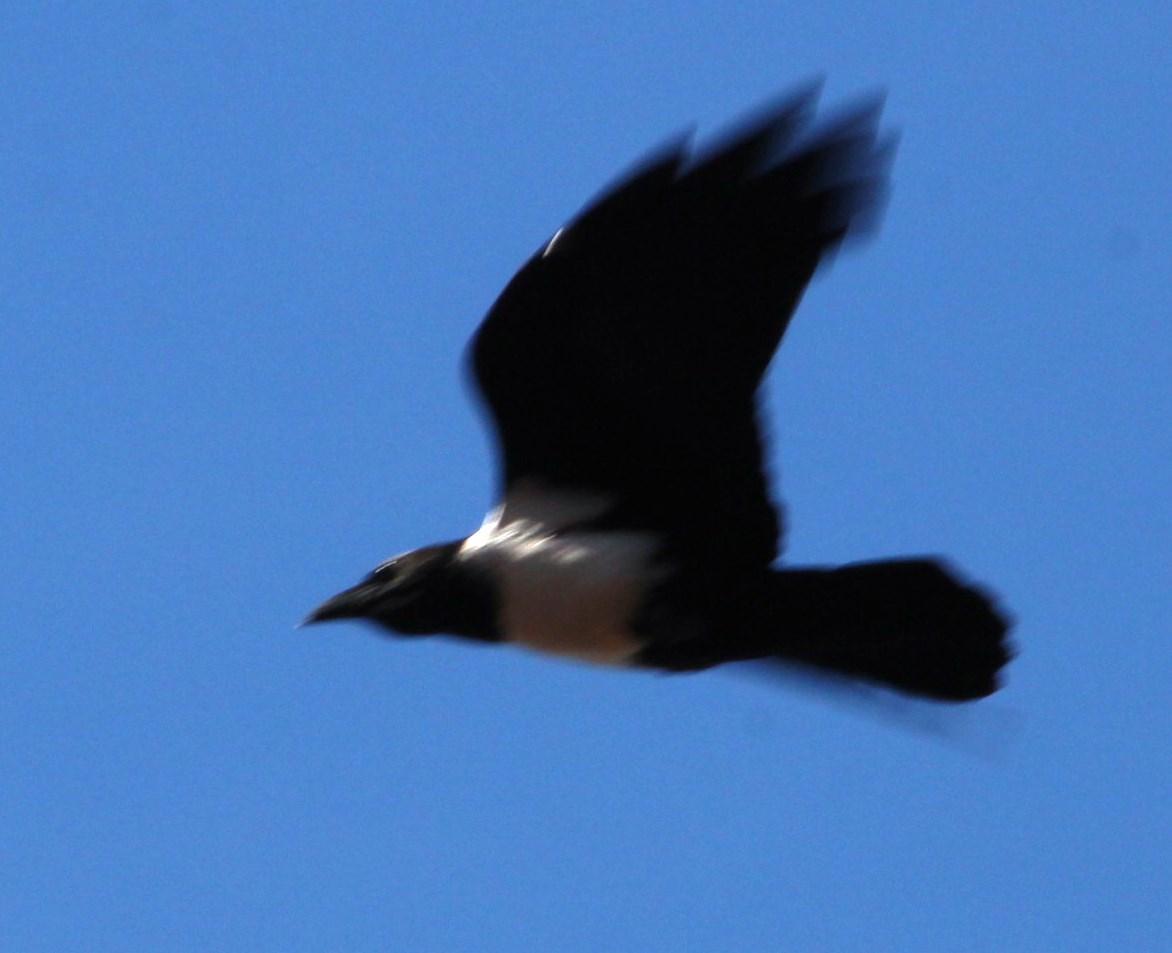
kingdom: Animalia
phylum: Chordata
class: Aves
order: Passeriformes
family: Corvidae
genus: Corvus
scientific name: Corvus albus
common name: Pied crow
